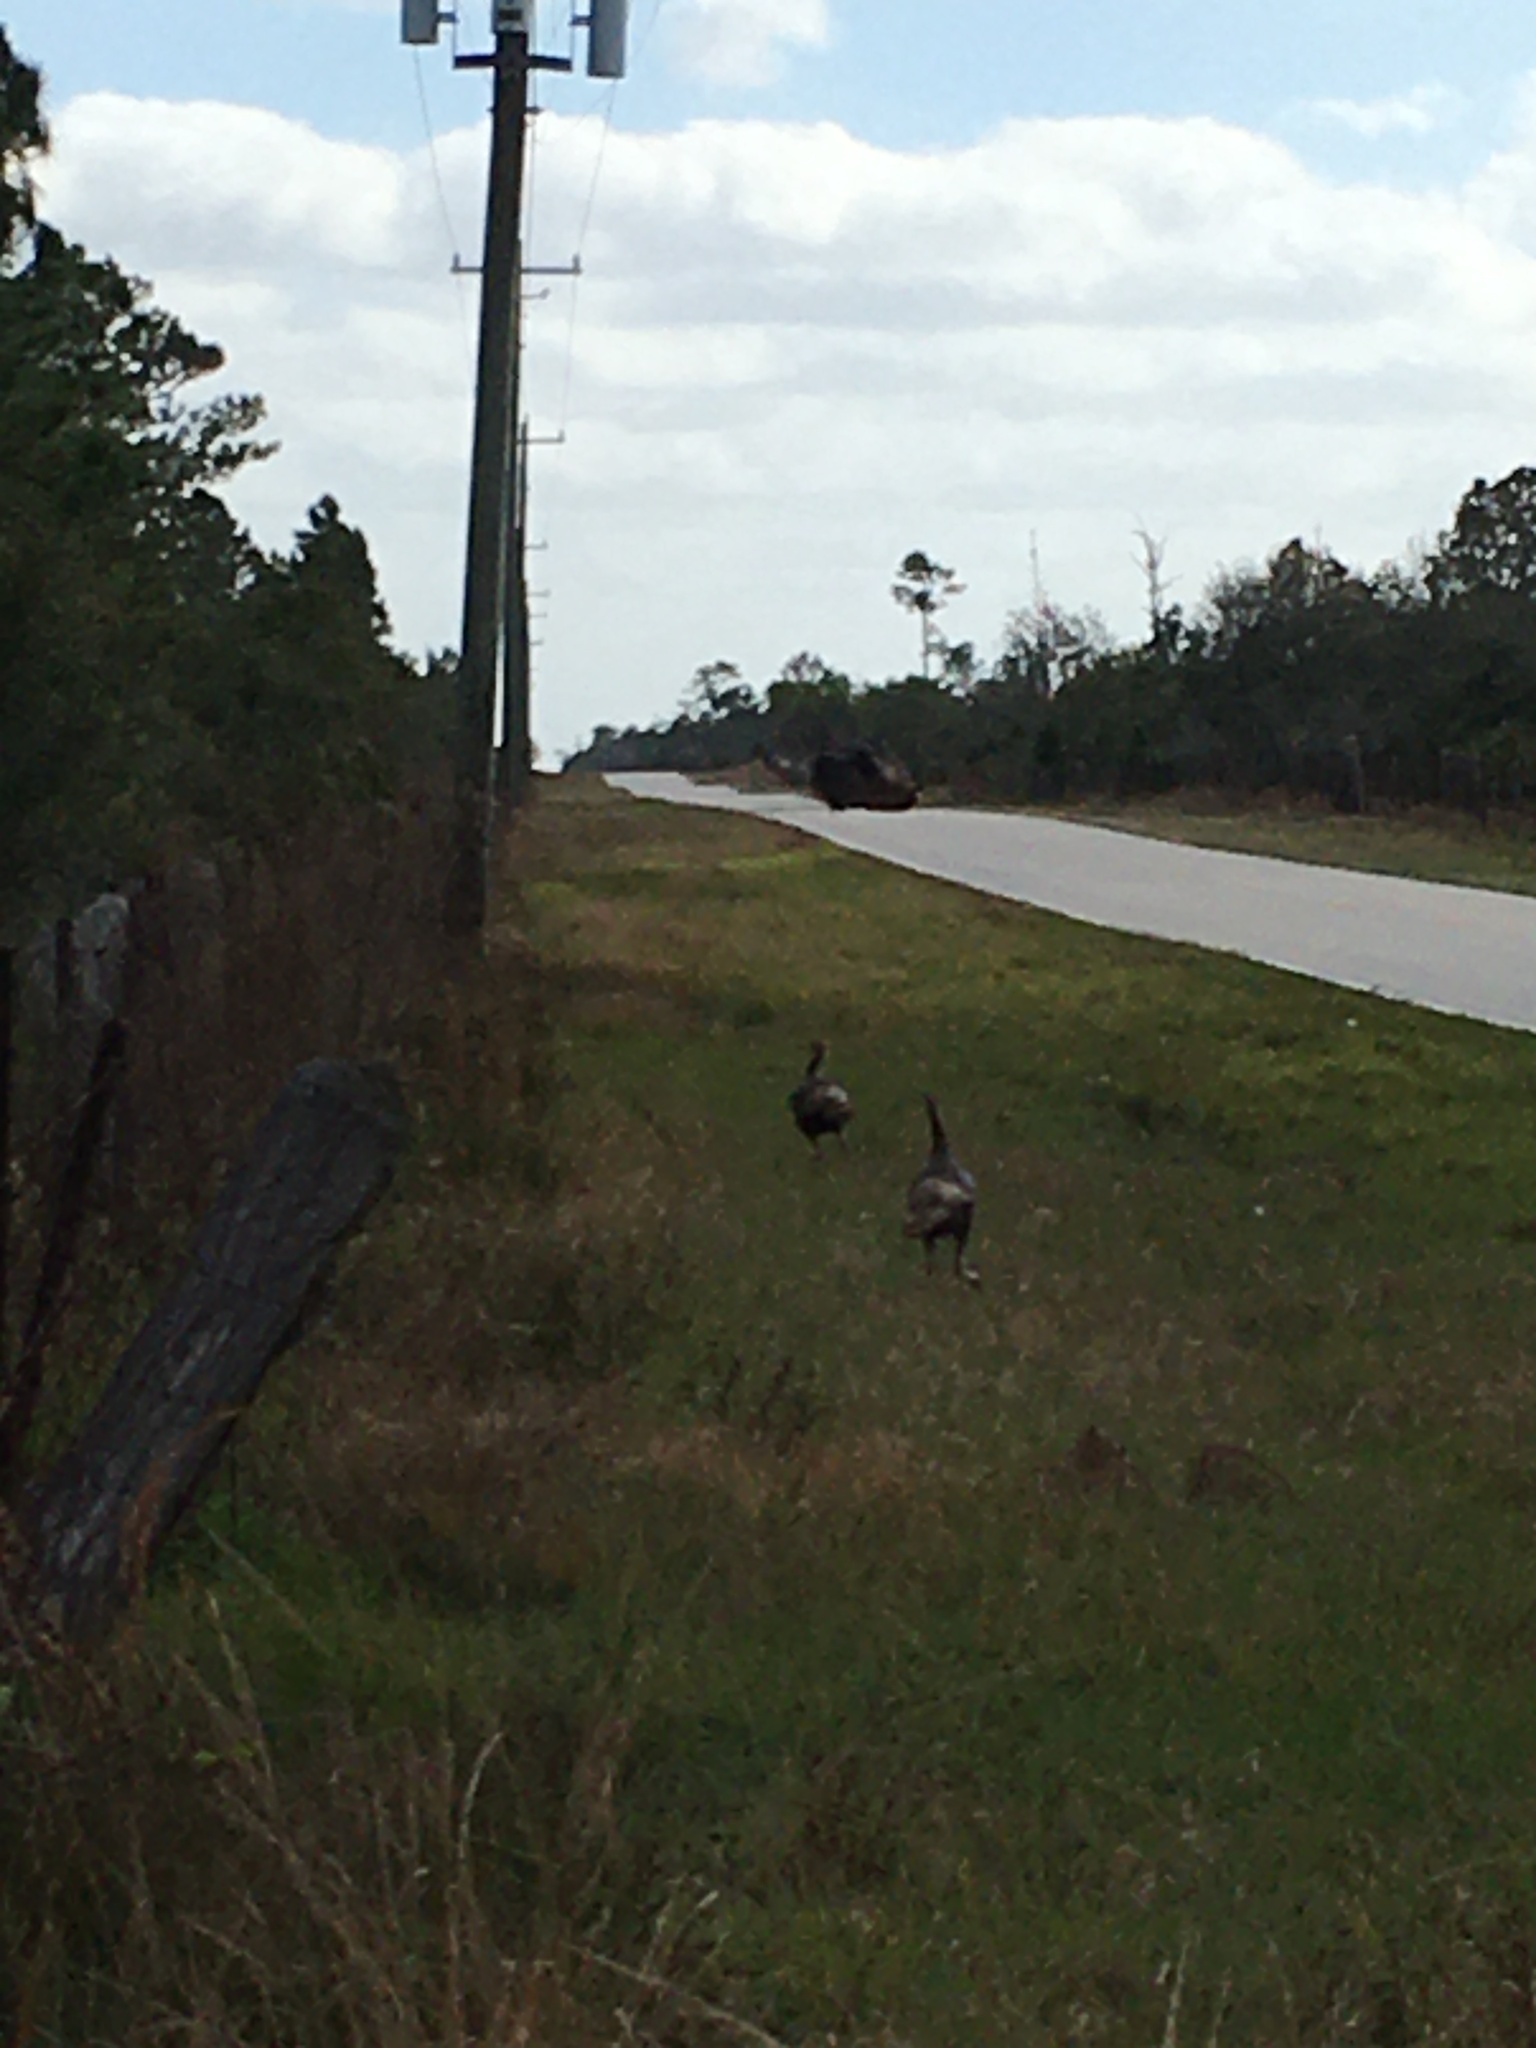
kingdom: Animalia
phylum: Chordata
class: Aves
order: Galliformes
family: Phasianidae
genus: Meleagris
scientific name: Meleagris gallopavo
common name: Wild turkey
